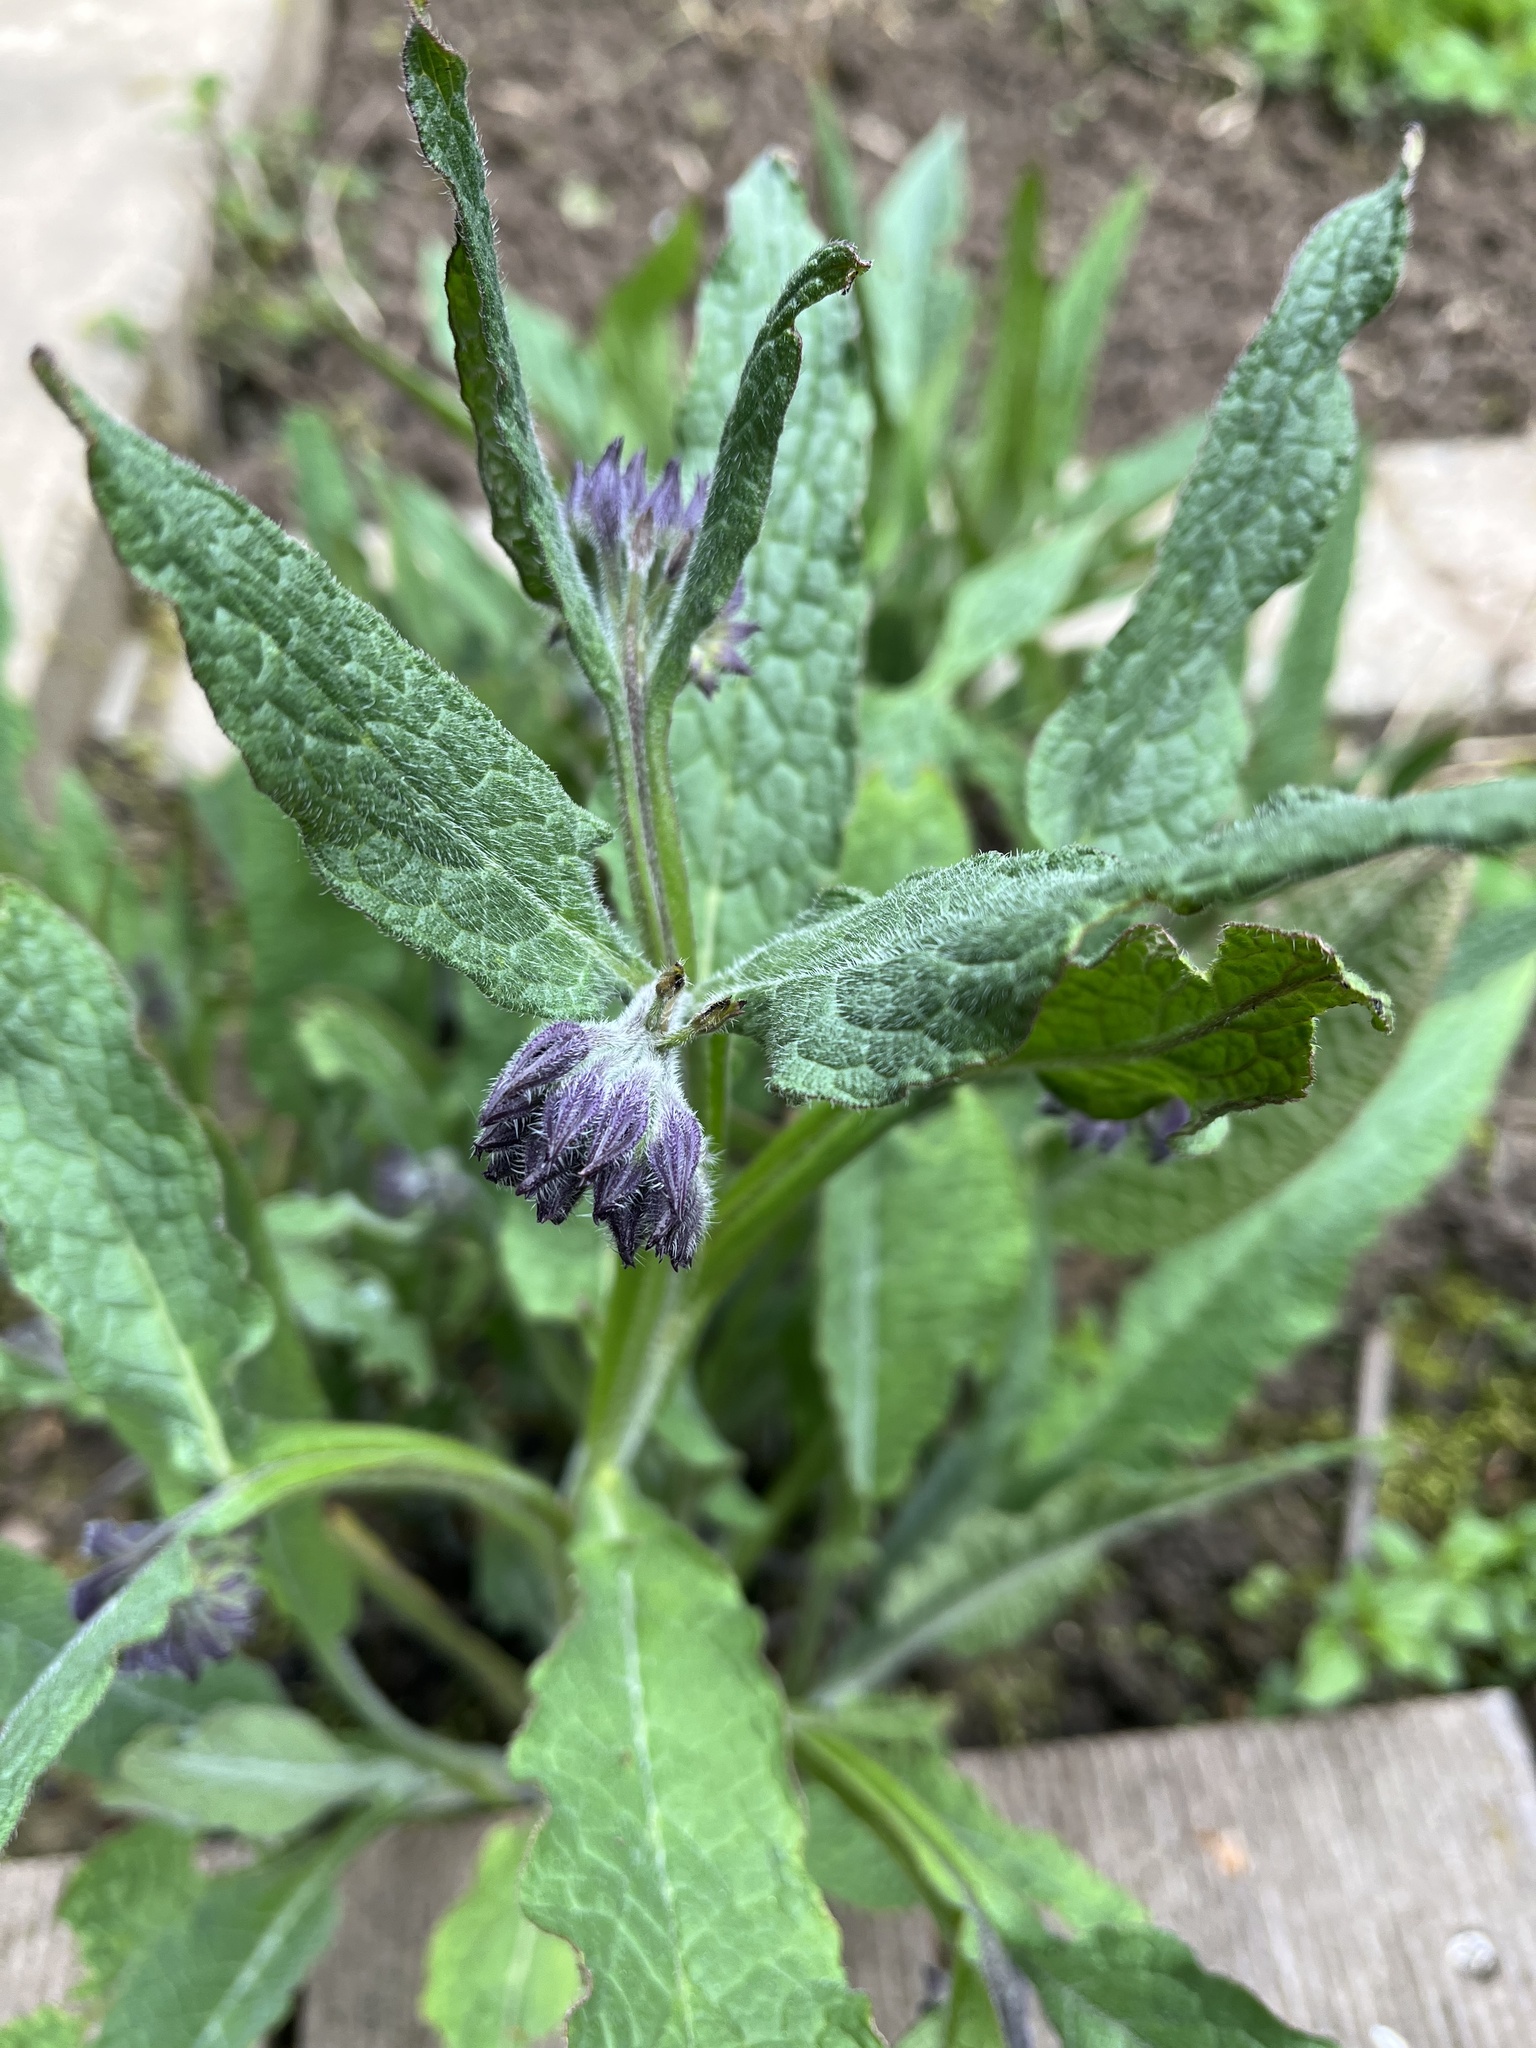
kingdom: Plantae
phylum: Tracheophyta
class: Magnoliopsida
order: Boraginales
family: Boraginaceae
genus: Symphytum
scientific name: Symphytum officinale
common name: Common comfrey
